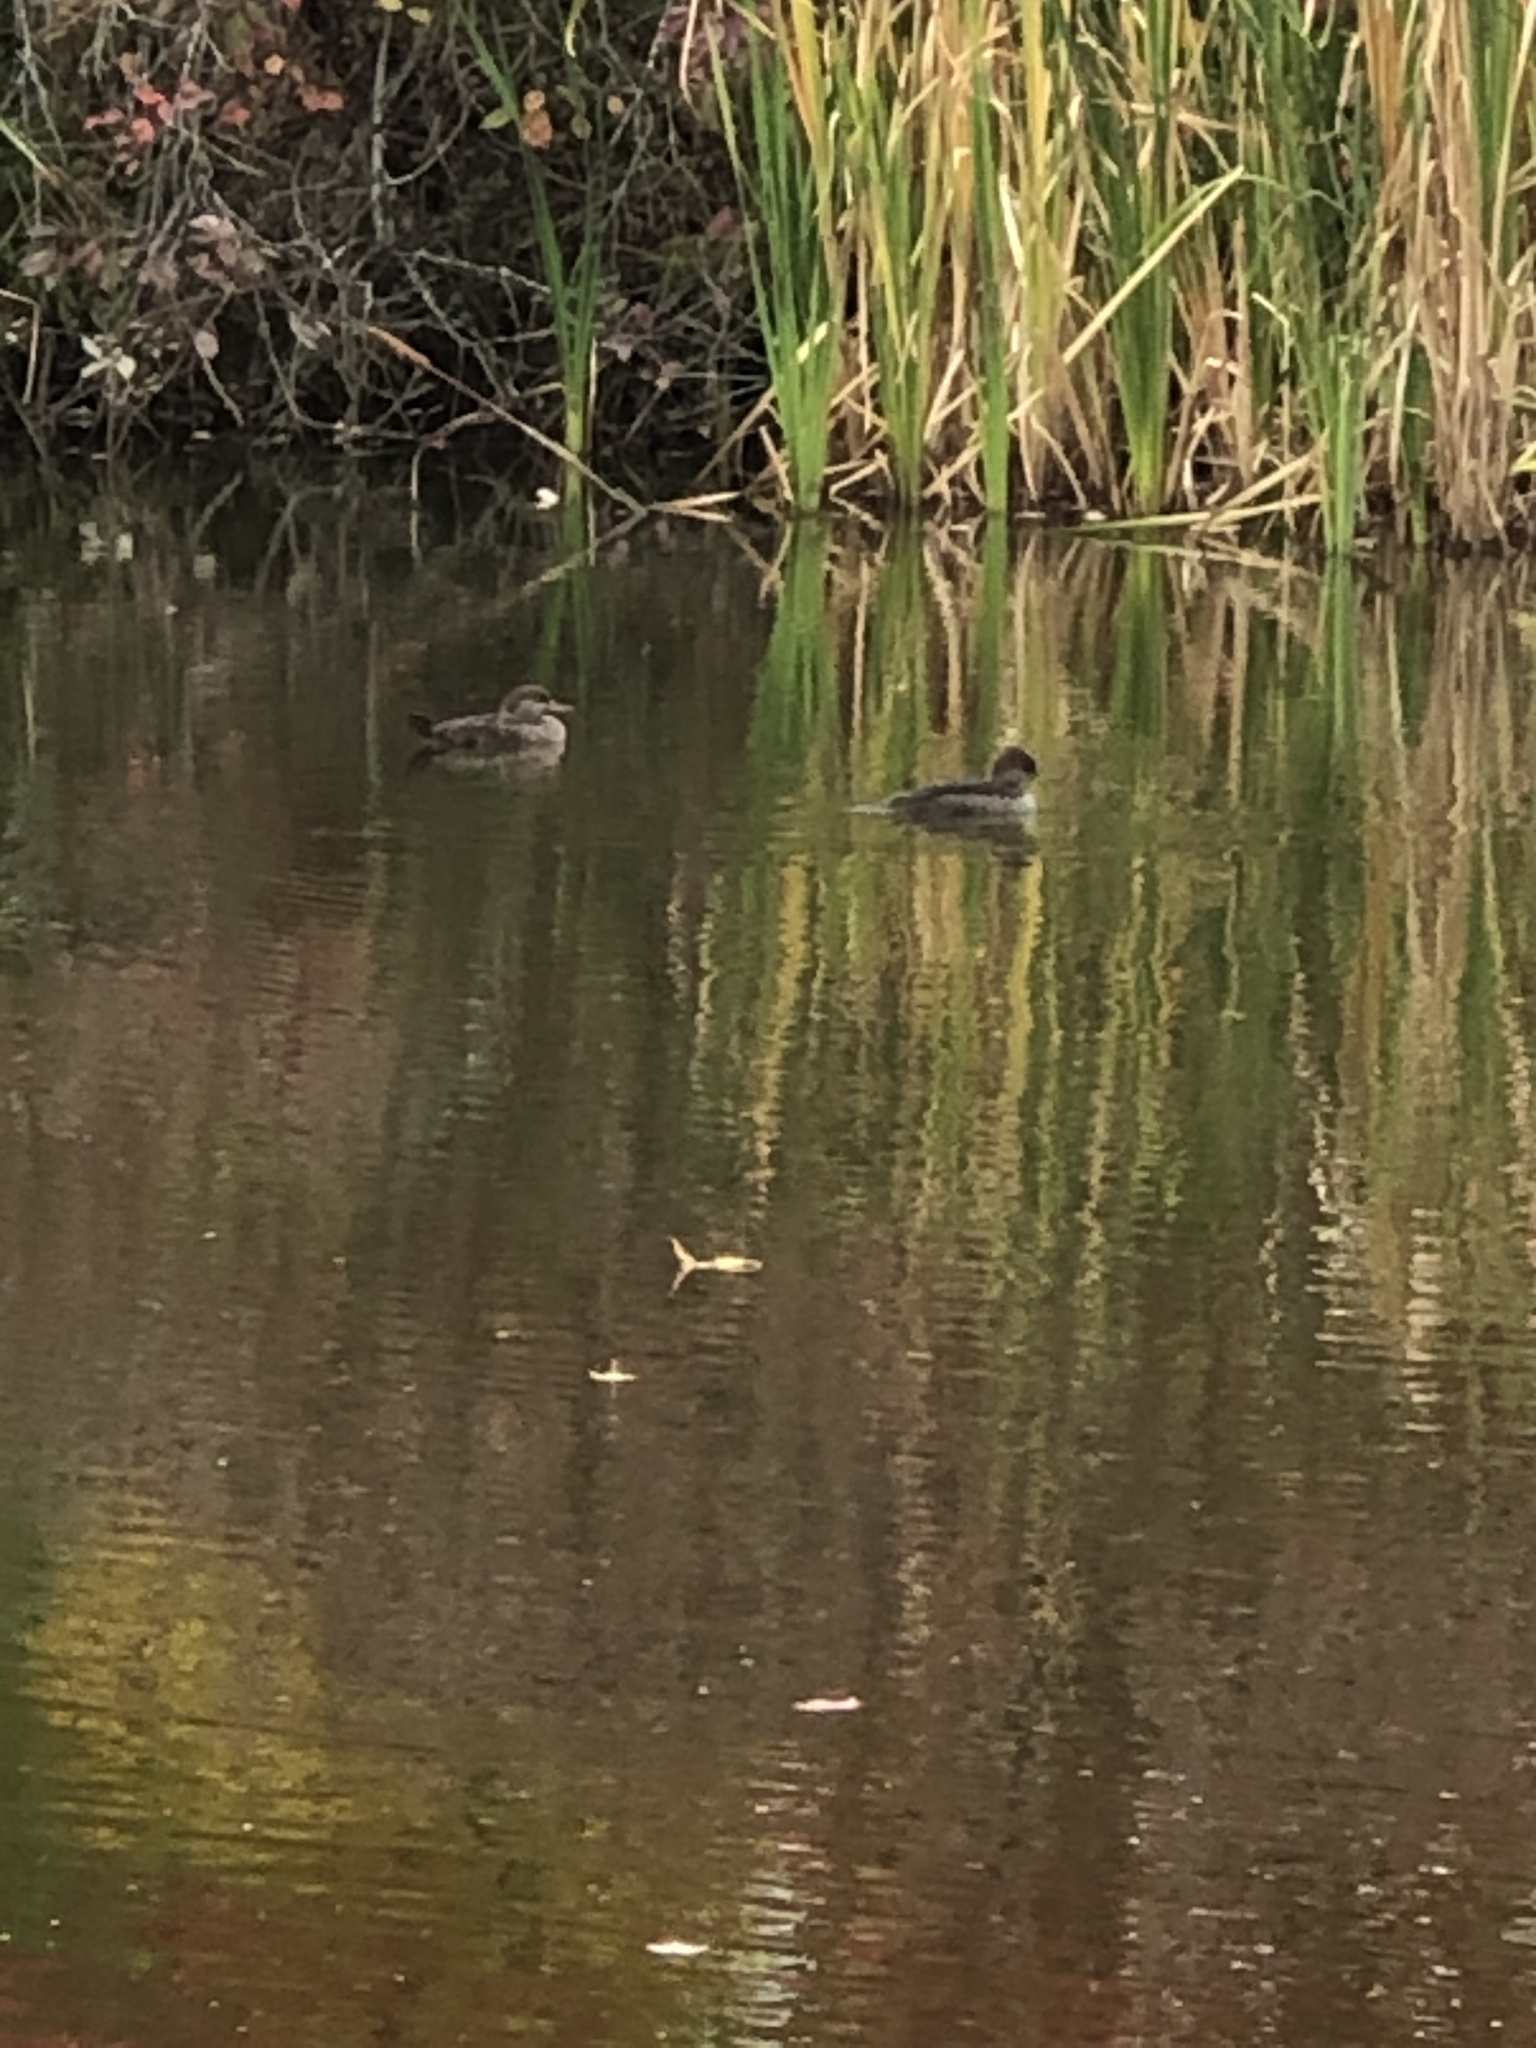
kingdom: Animalia
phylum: Chordata
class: Aves
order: Anseriformes
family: Anatidae
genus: Lophodytes
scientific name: Lophodytes cucullatus
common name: Hooded merganser
